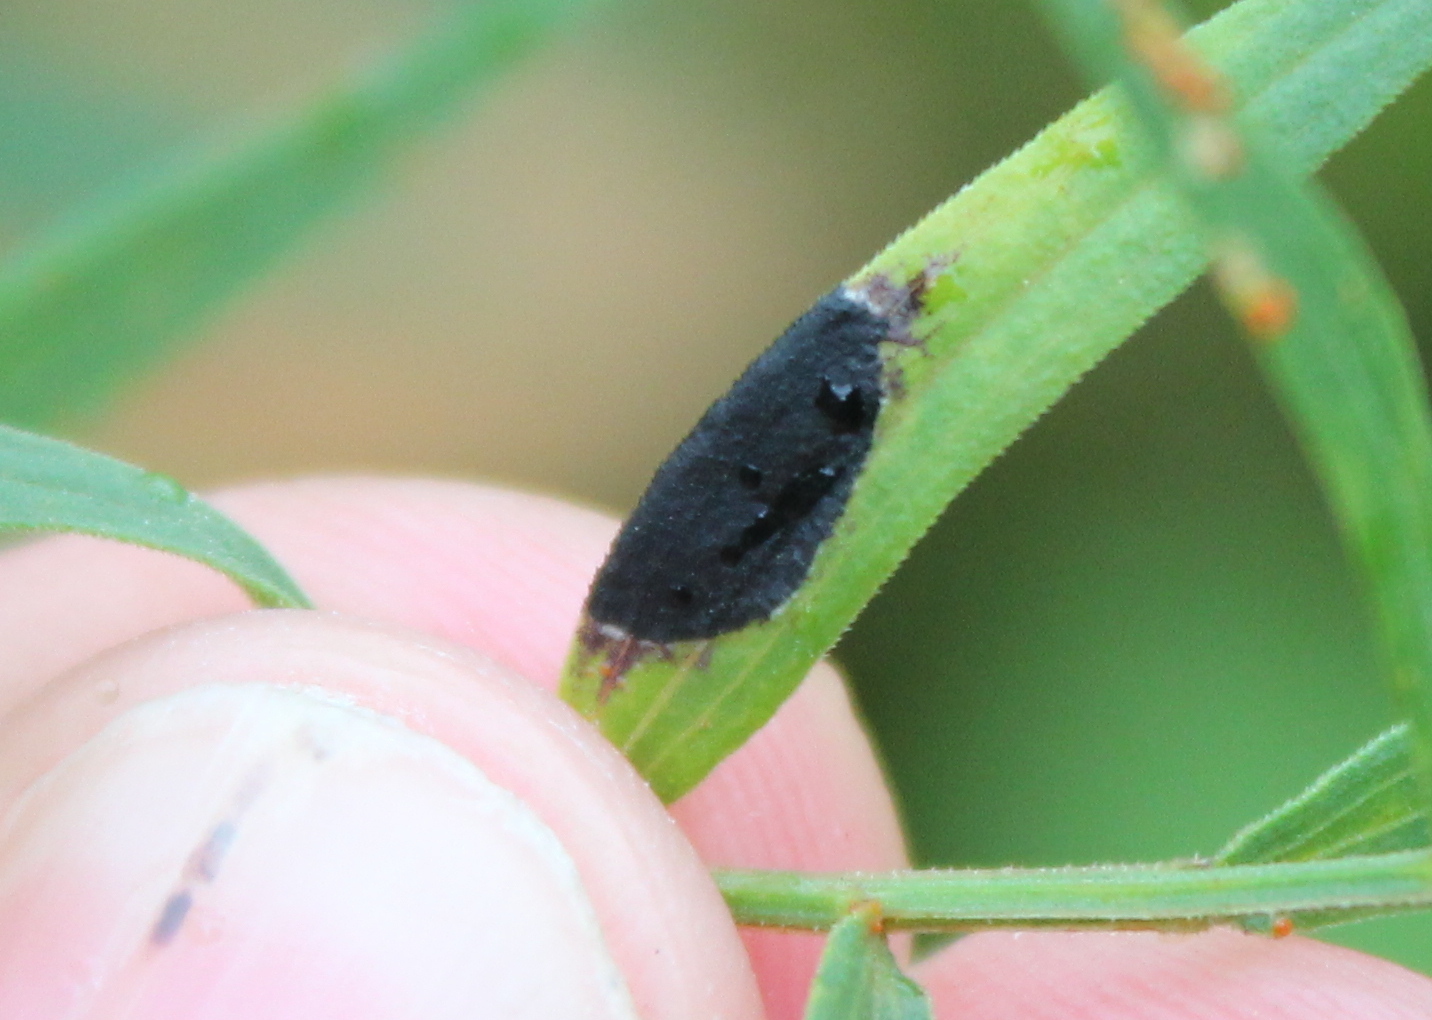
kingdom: Animalia
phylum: Arthropoda
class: Insecta
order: Diptera
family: Cecidomyiidae
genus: Asteromyia
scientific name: Asteromyia euthamiae
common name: Euthamia leaf gall midge
